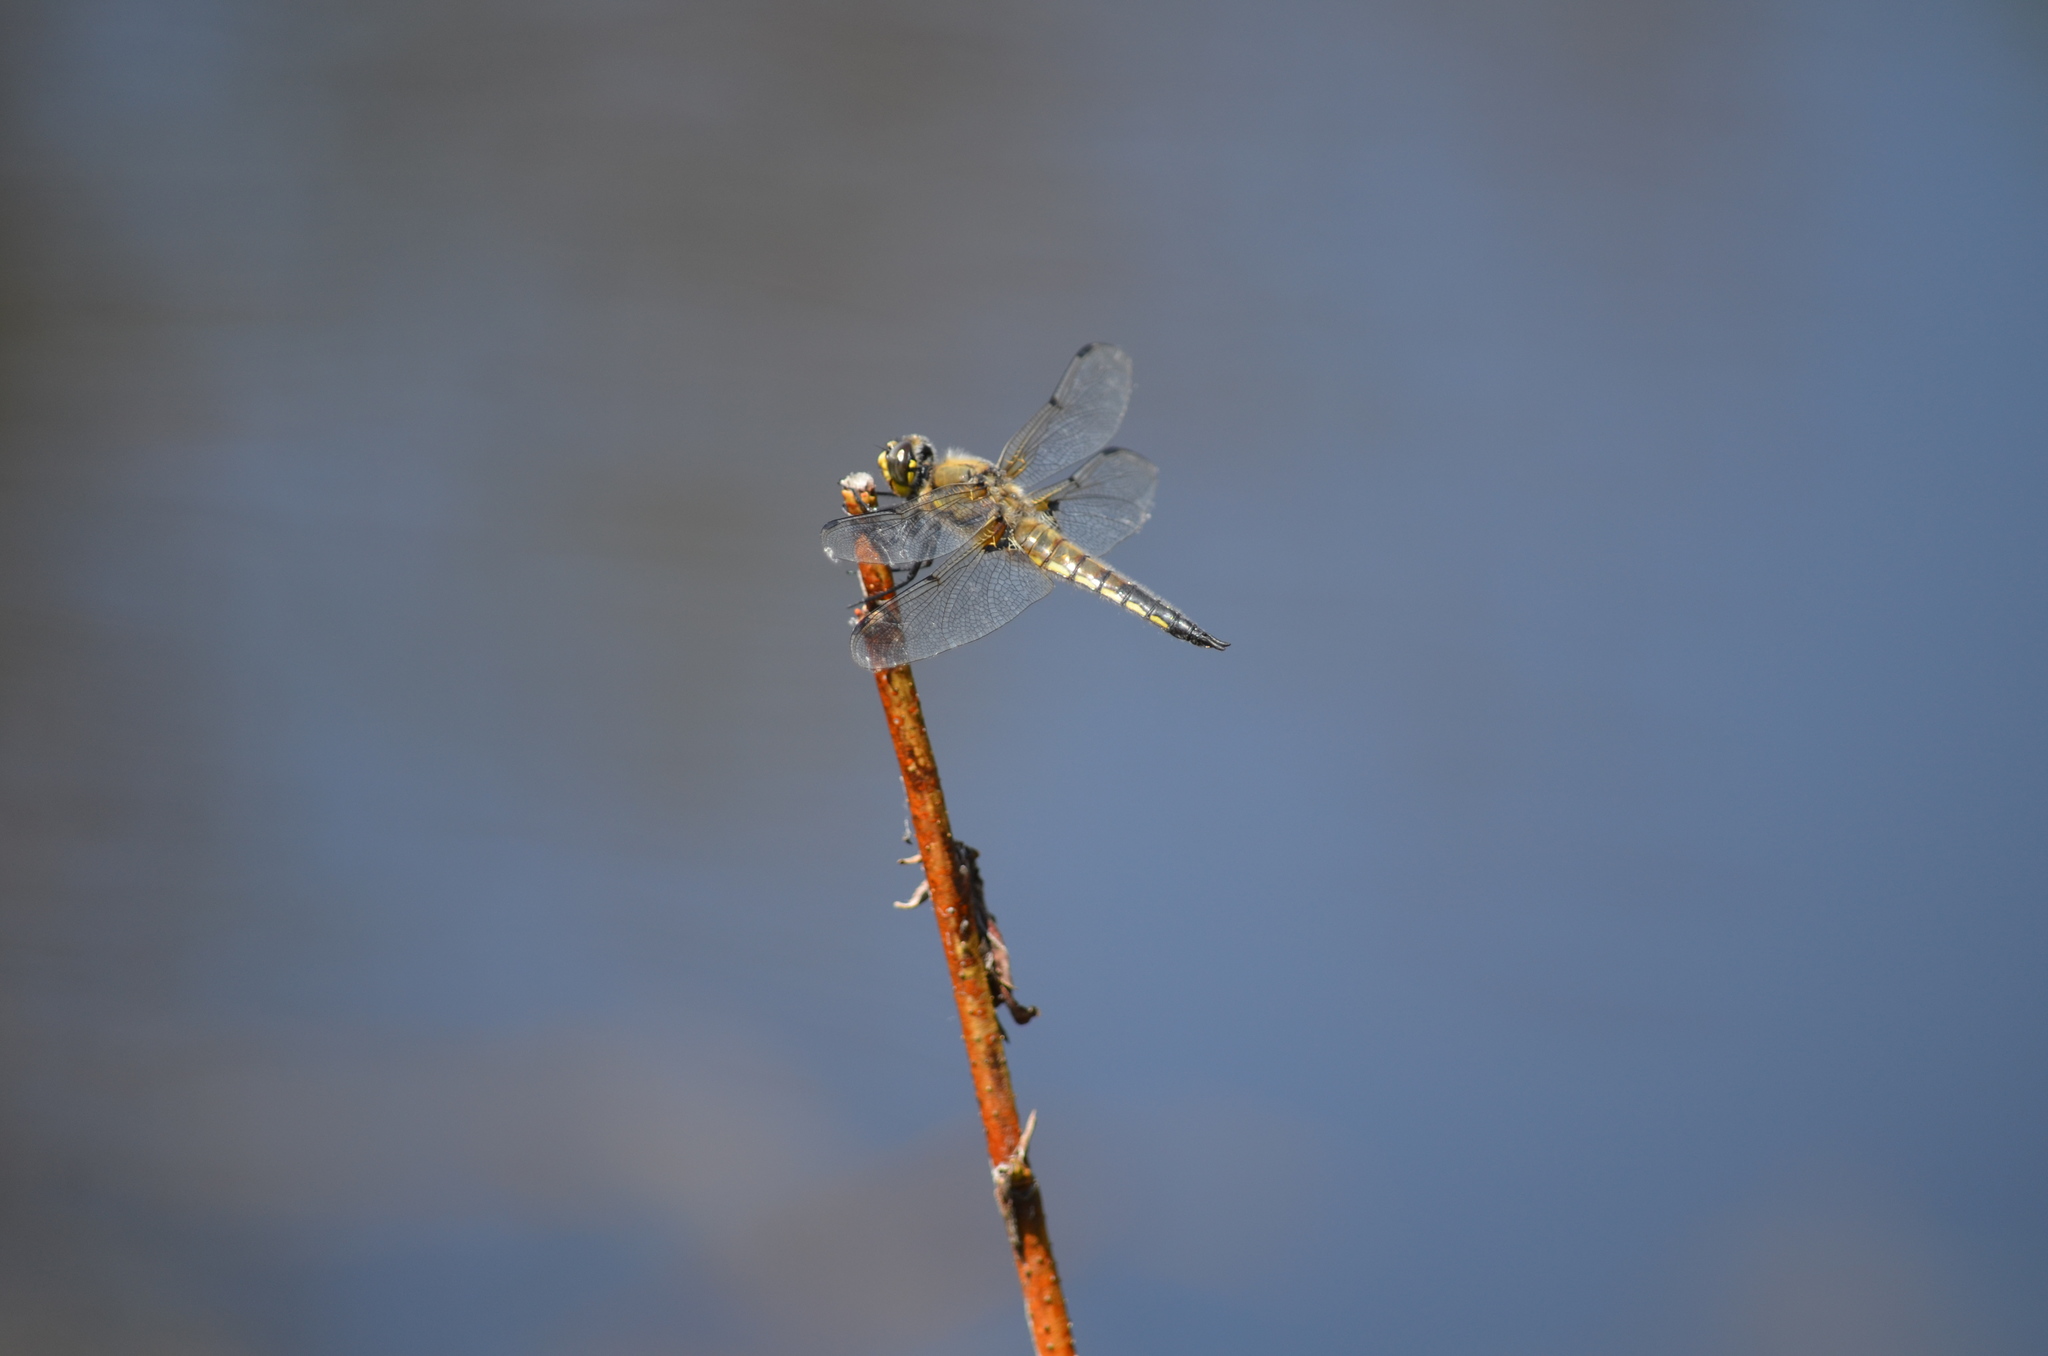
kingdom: Animalia
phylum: Arthropoda
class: Insecta
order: Odonata
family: Libellulidae
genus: Libellula
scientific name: Libellula quadrimaculata
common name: Four-spotted chaser
